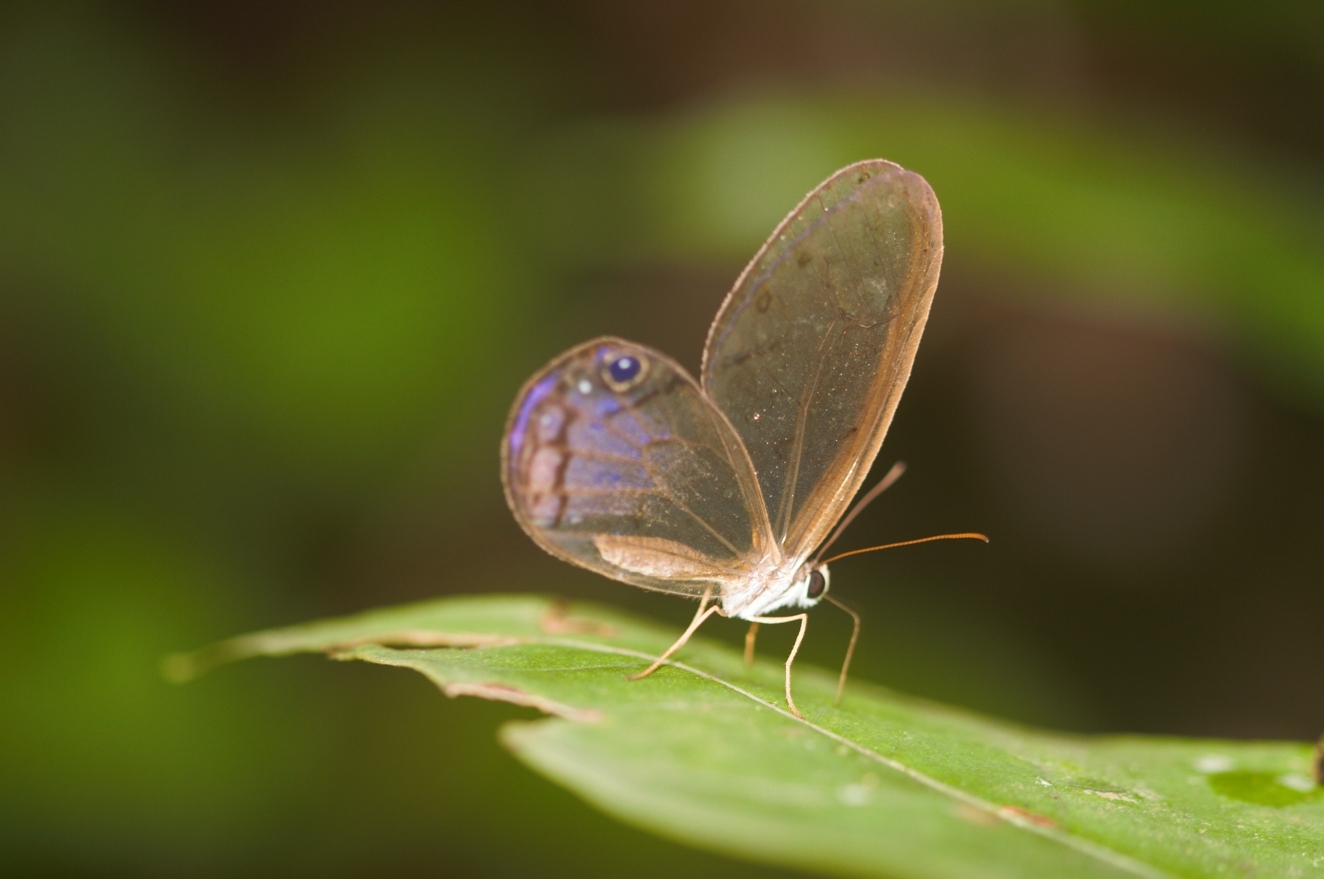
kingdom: Animalia
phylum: Arthropoda
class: Insecta
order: Lepidoptera
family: Nymphalidae
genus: Cithaerias
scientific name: Cithaerias pireta
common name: Rusted clearwing-satyr
